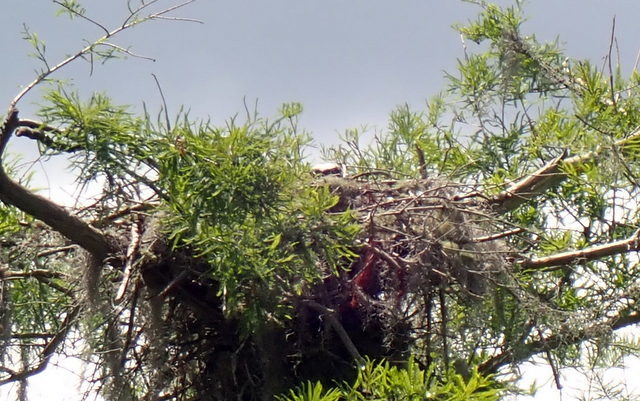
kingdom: Animalia
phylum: Chordata
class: Aves
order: Accipitriformes
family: Pandionidae
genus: Pandion
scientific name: Pandion haliaetus
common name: Osprey
